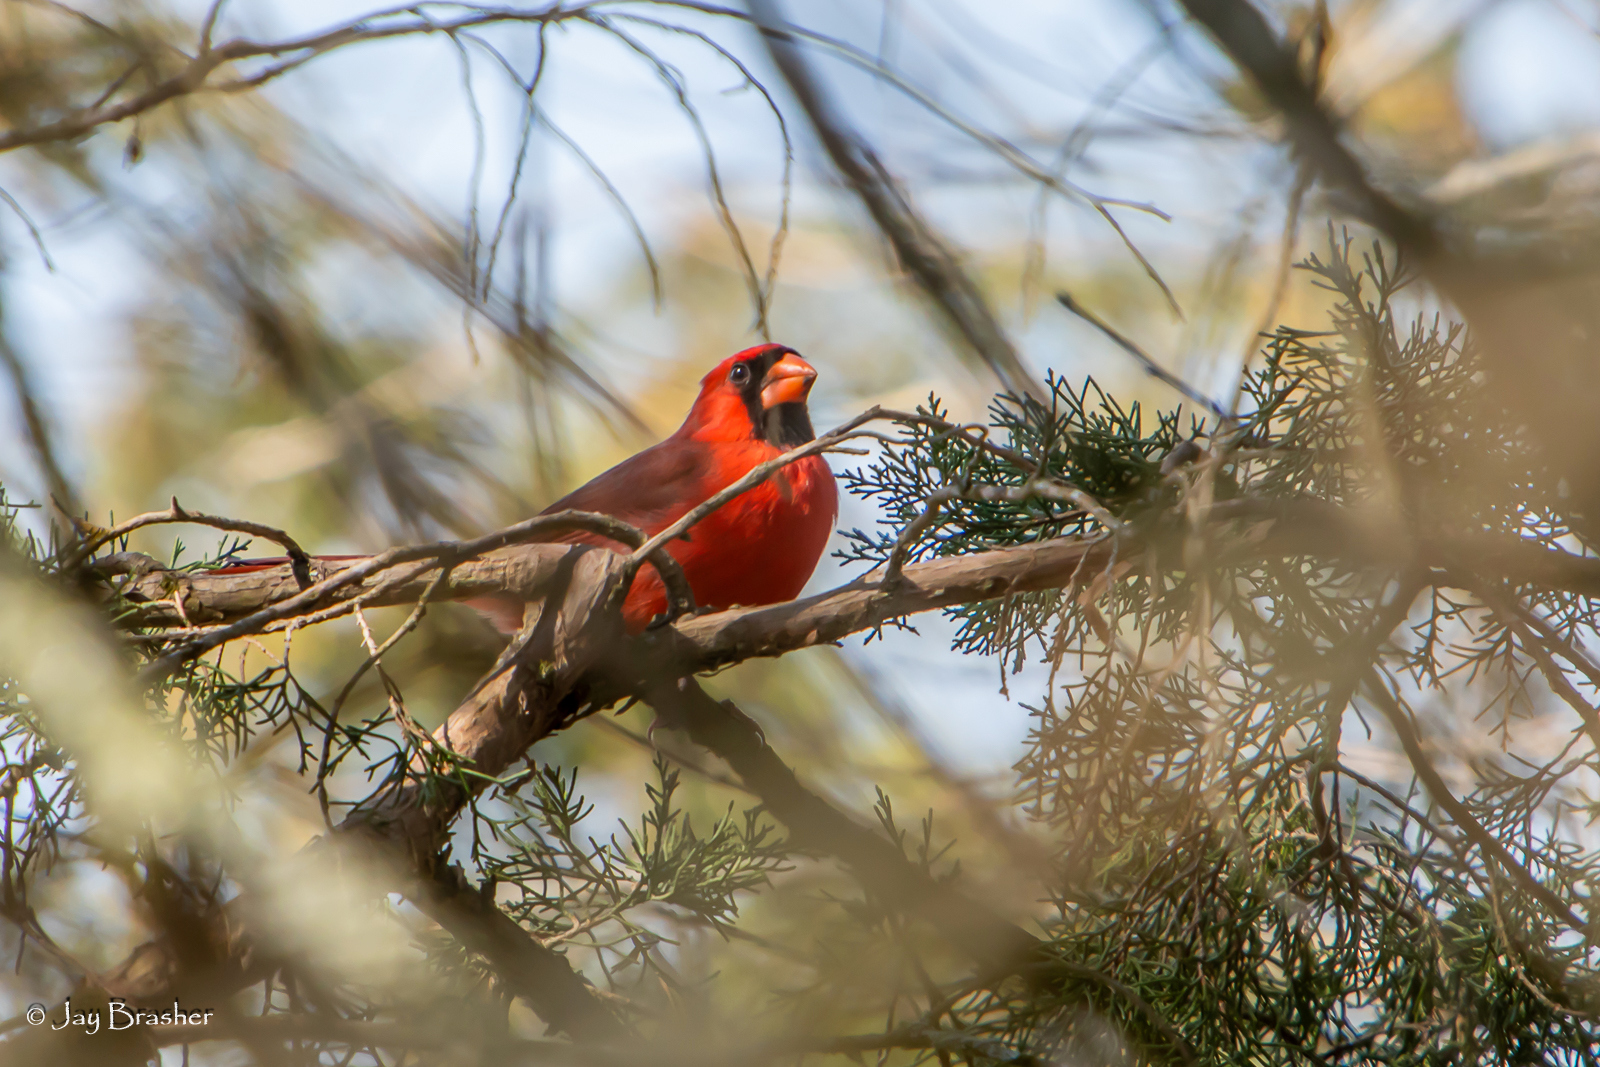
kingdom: Animalia
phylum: Chordata
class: Aves
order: Passeriformes
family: Cardinalidae
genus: Cardinalis
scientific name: Cardinalis cardinalis
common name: Northern cardinal
